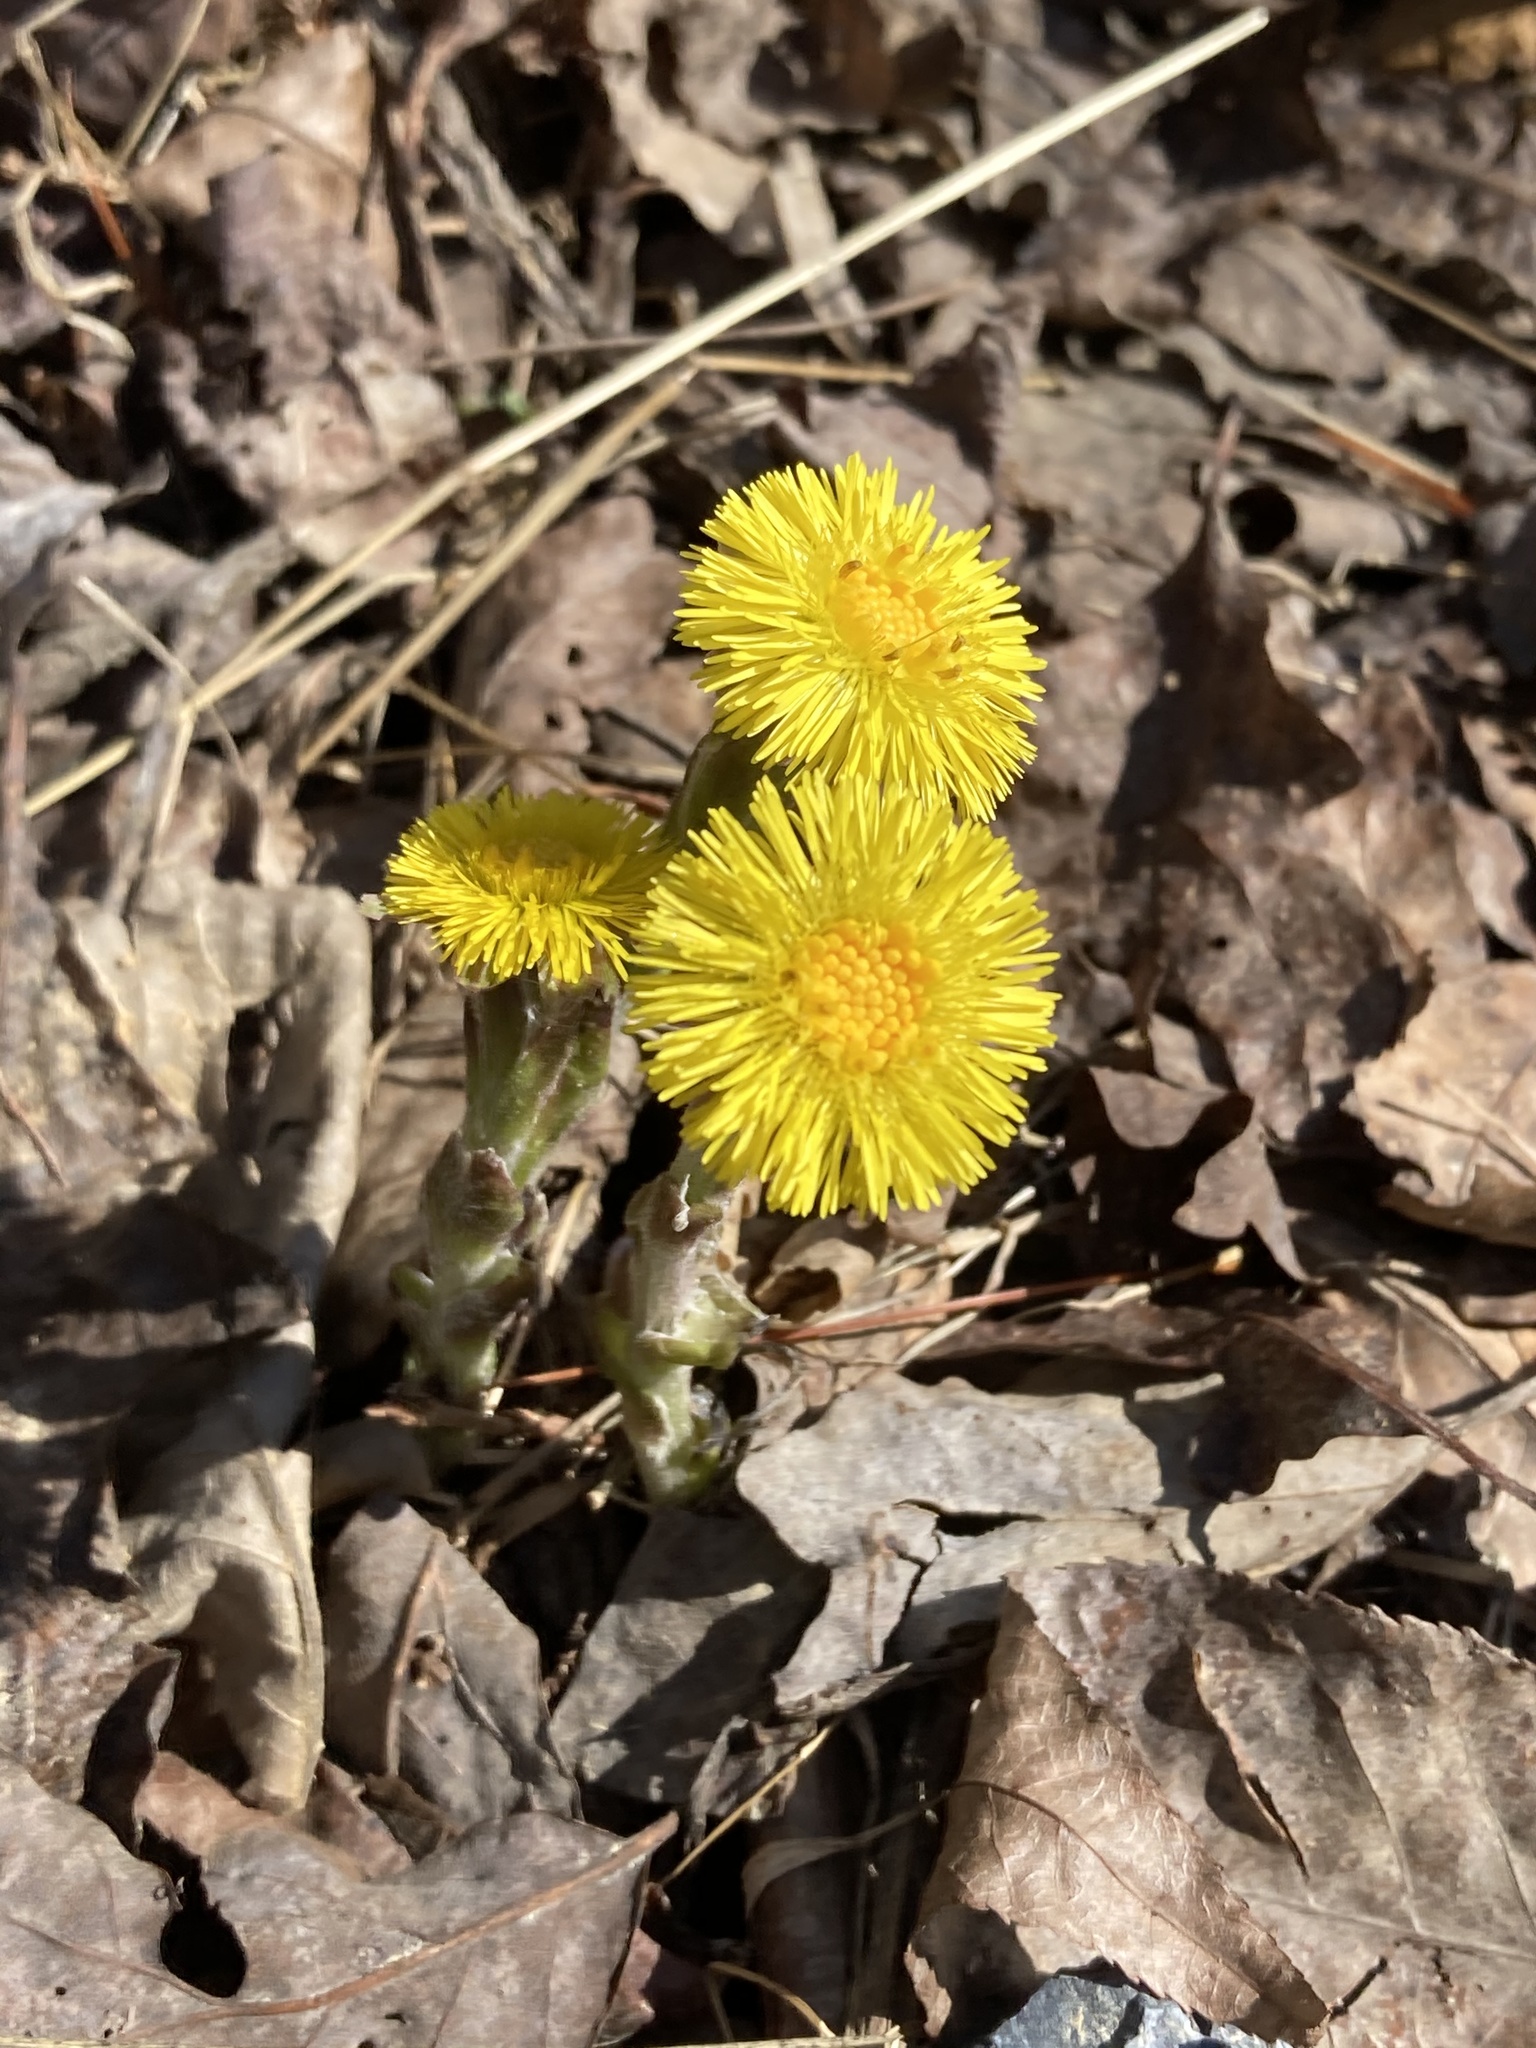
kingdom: Plantae
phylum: Tracheophyta
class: Magnoliopsida
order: Asterales
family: Asteraceae
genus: Tussilago
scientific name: Tussilago farfara
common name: Coltsfoot
